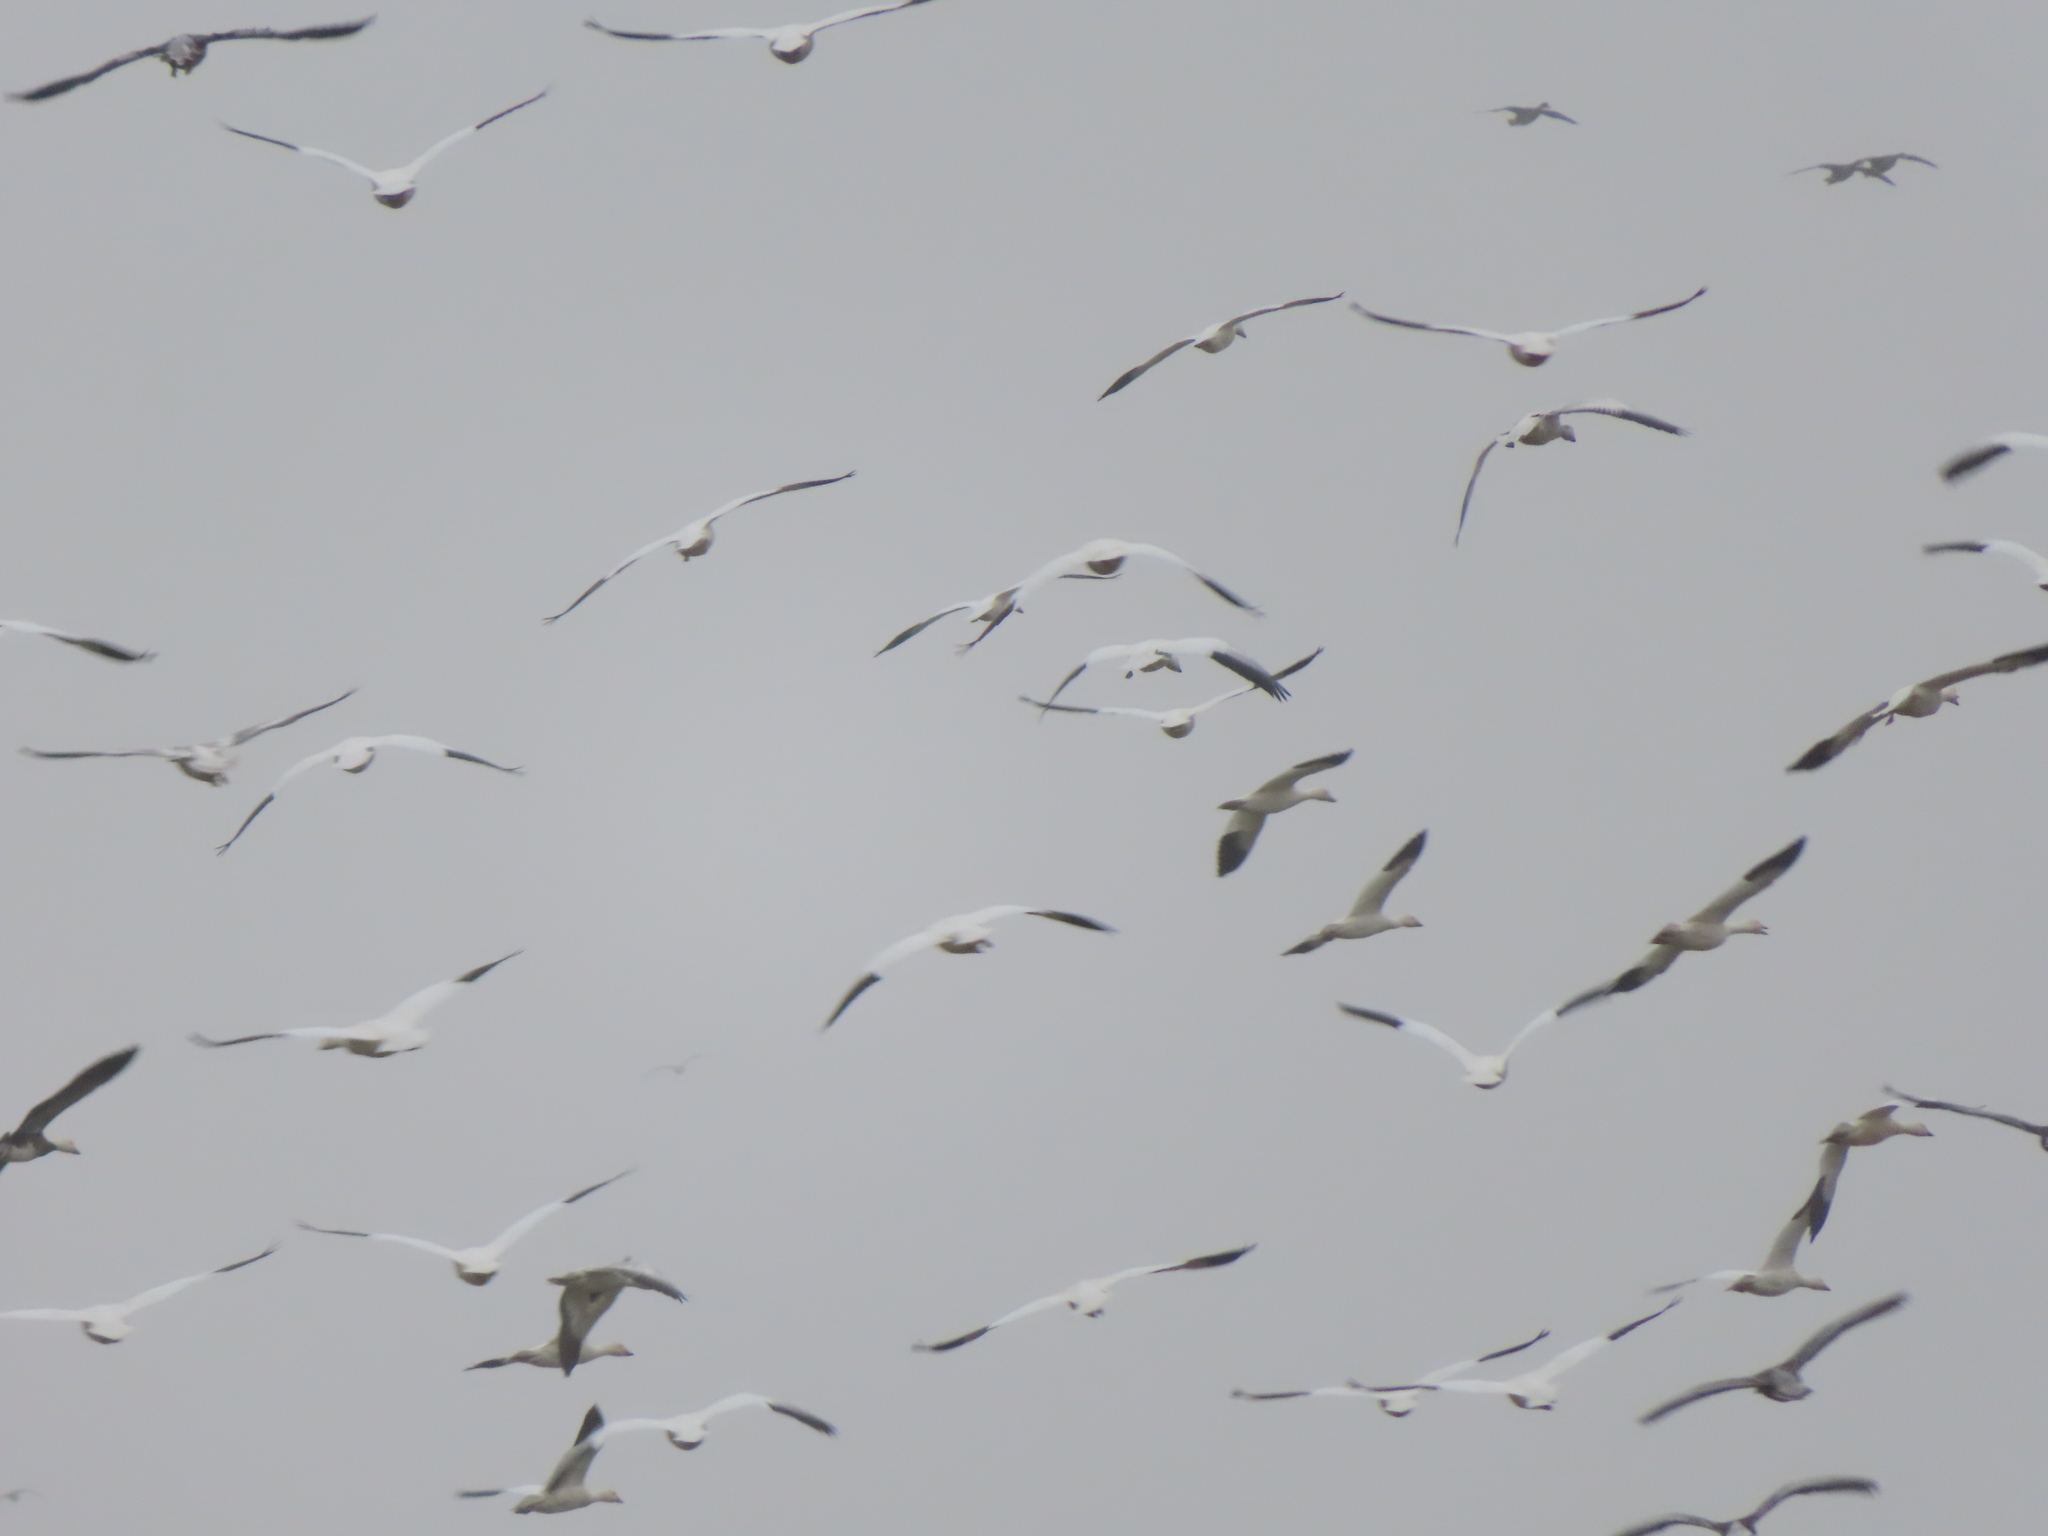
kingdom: Animalia
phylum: Chordata
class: Aves
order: Anseriformes
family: Anatidae
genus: Anser
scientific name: Anser caerulescens
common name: Snow goose
